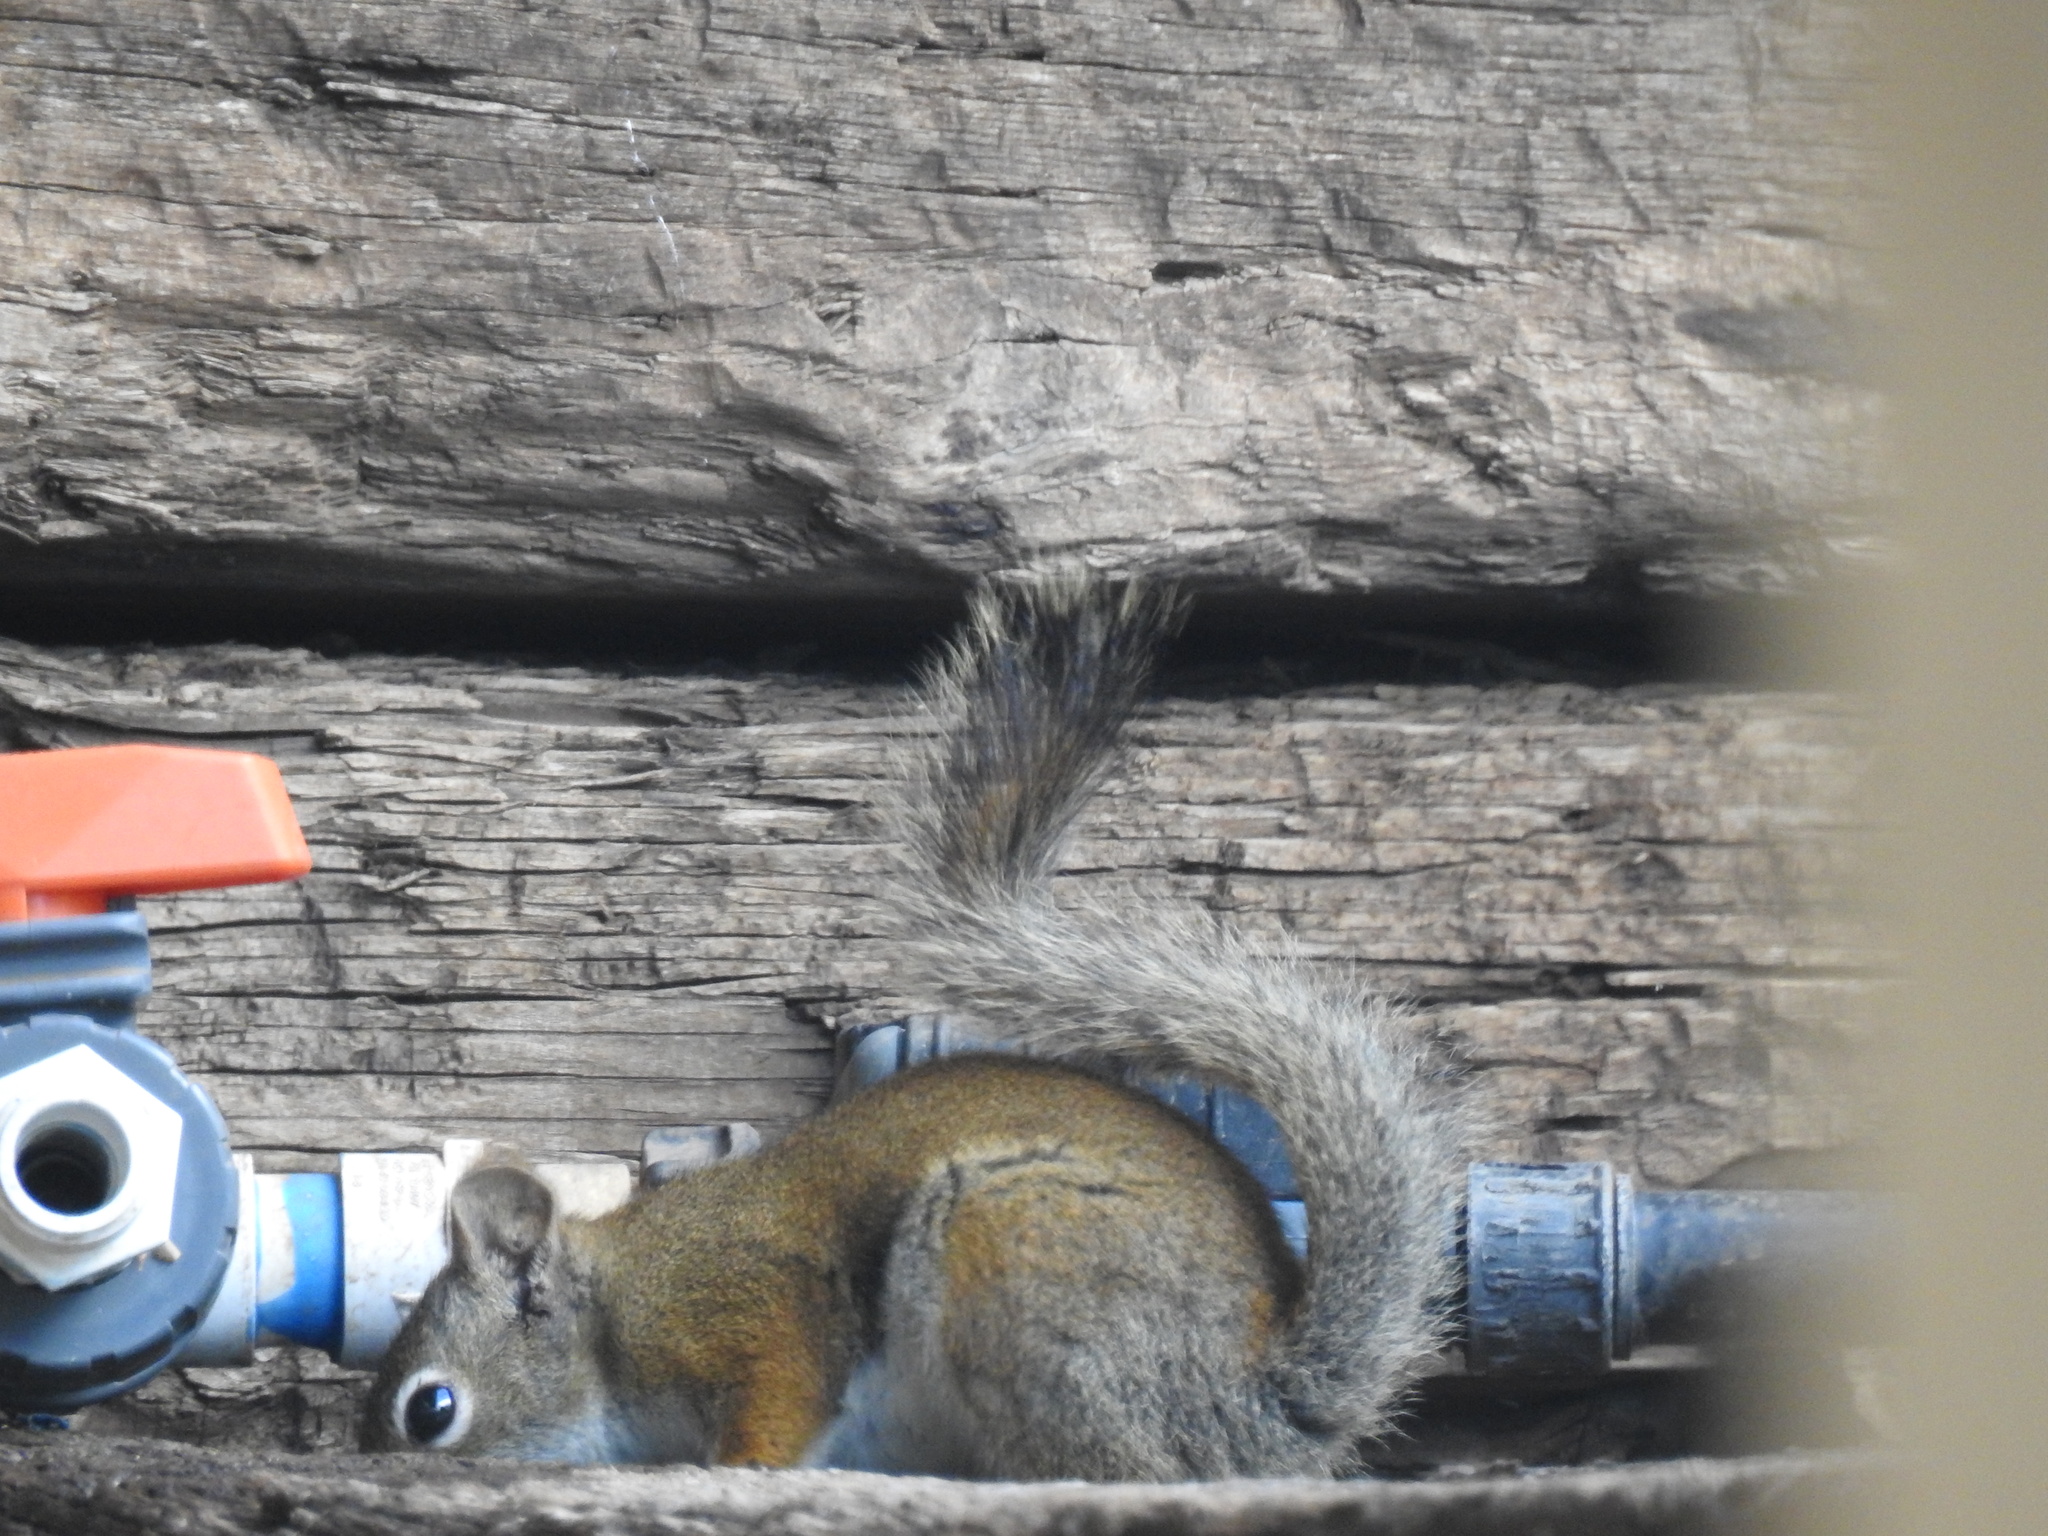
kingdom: Animalia
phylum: Chordata
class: Mammalia
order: Rodentia
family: Sciuridae
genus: Tamiasciurus
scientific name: Tamiasciurus hudsonicus
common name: Red squirrel
